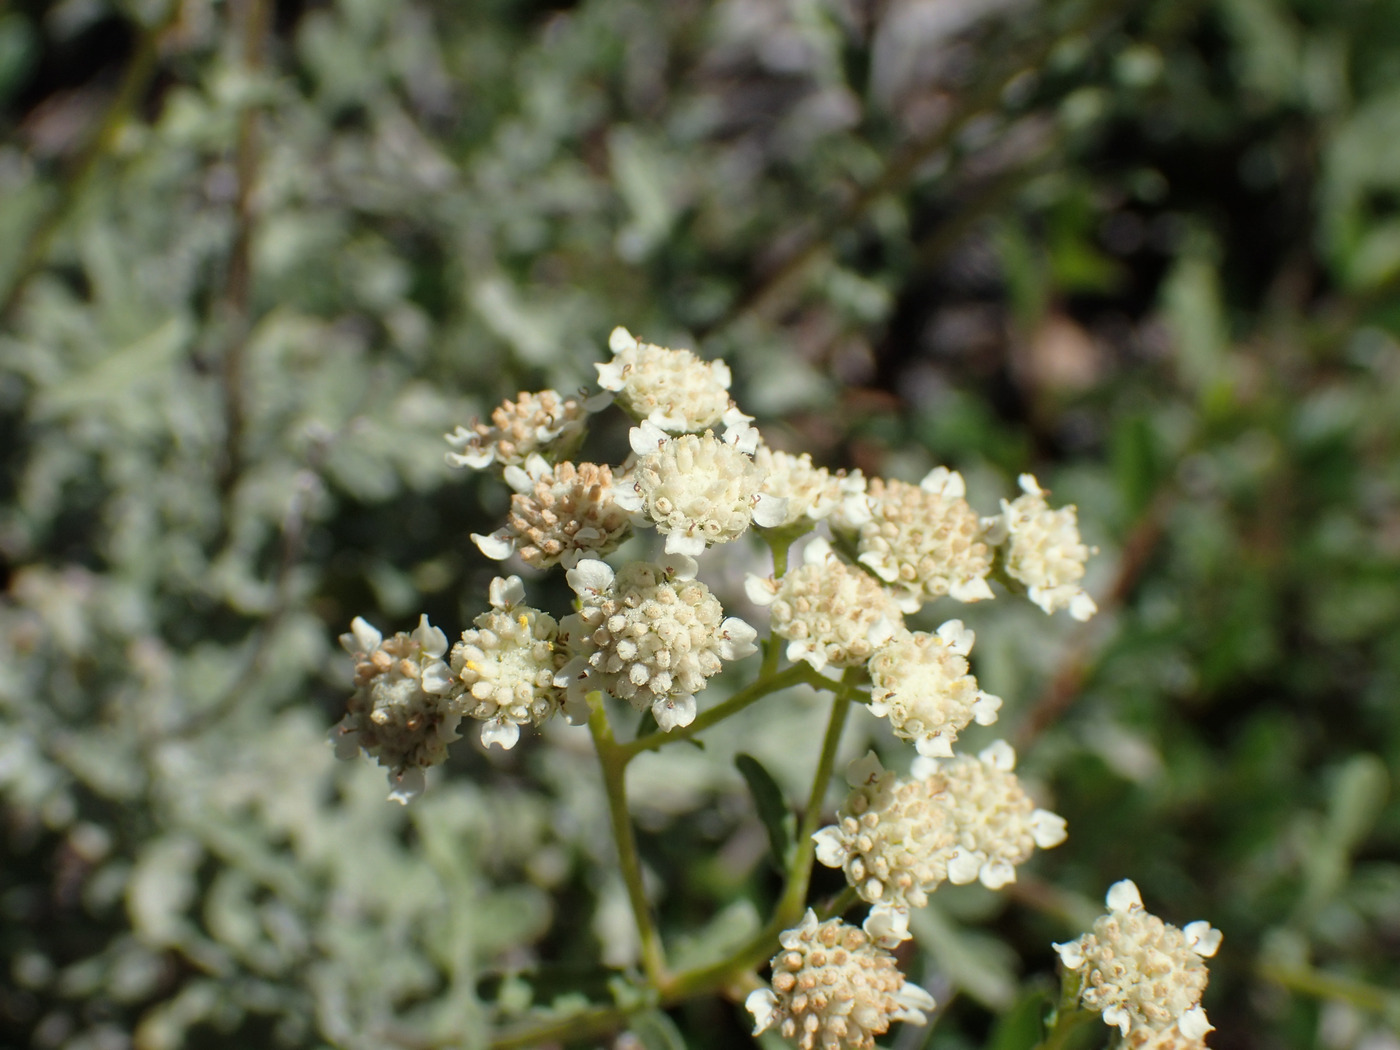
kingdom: Plantae
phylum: Tracheophyta
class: Magnoliopsida
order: Asterales
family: Asteraceae
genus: Parthenium
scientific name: Parthenium incanum
